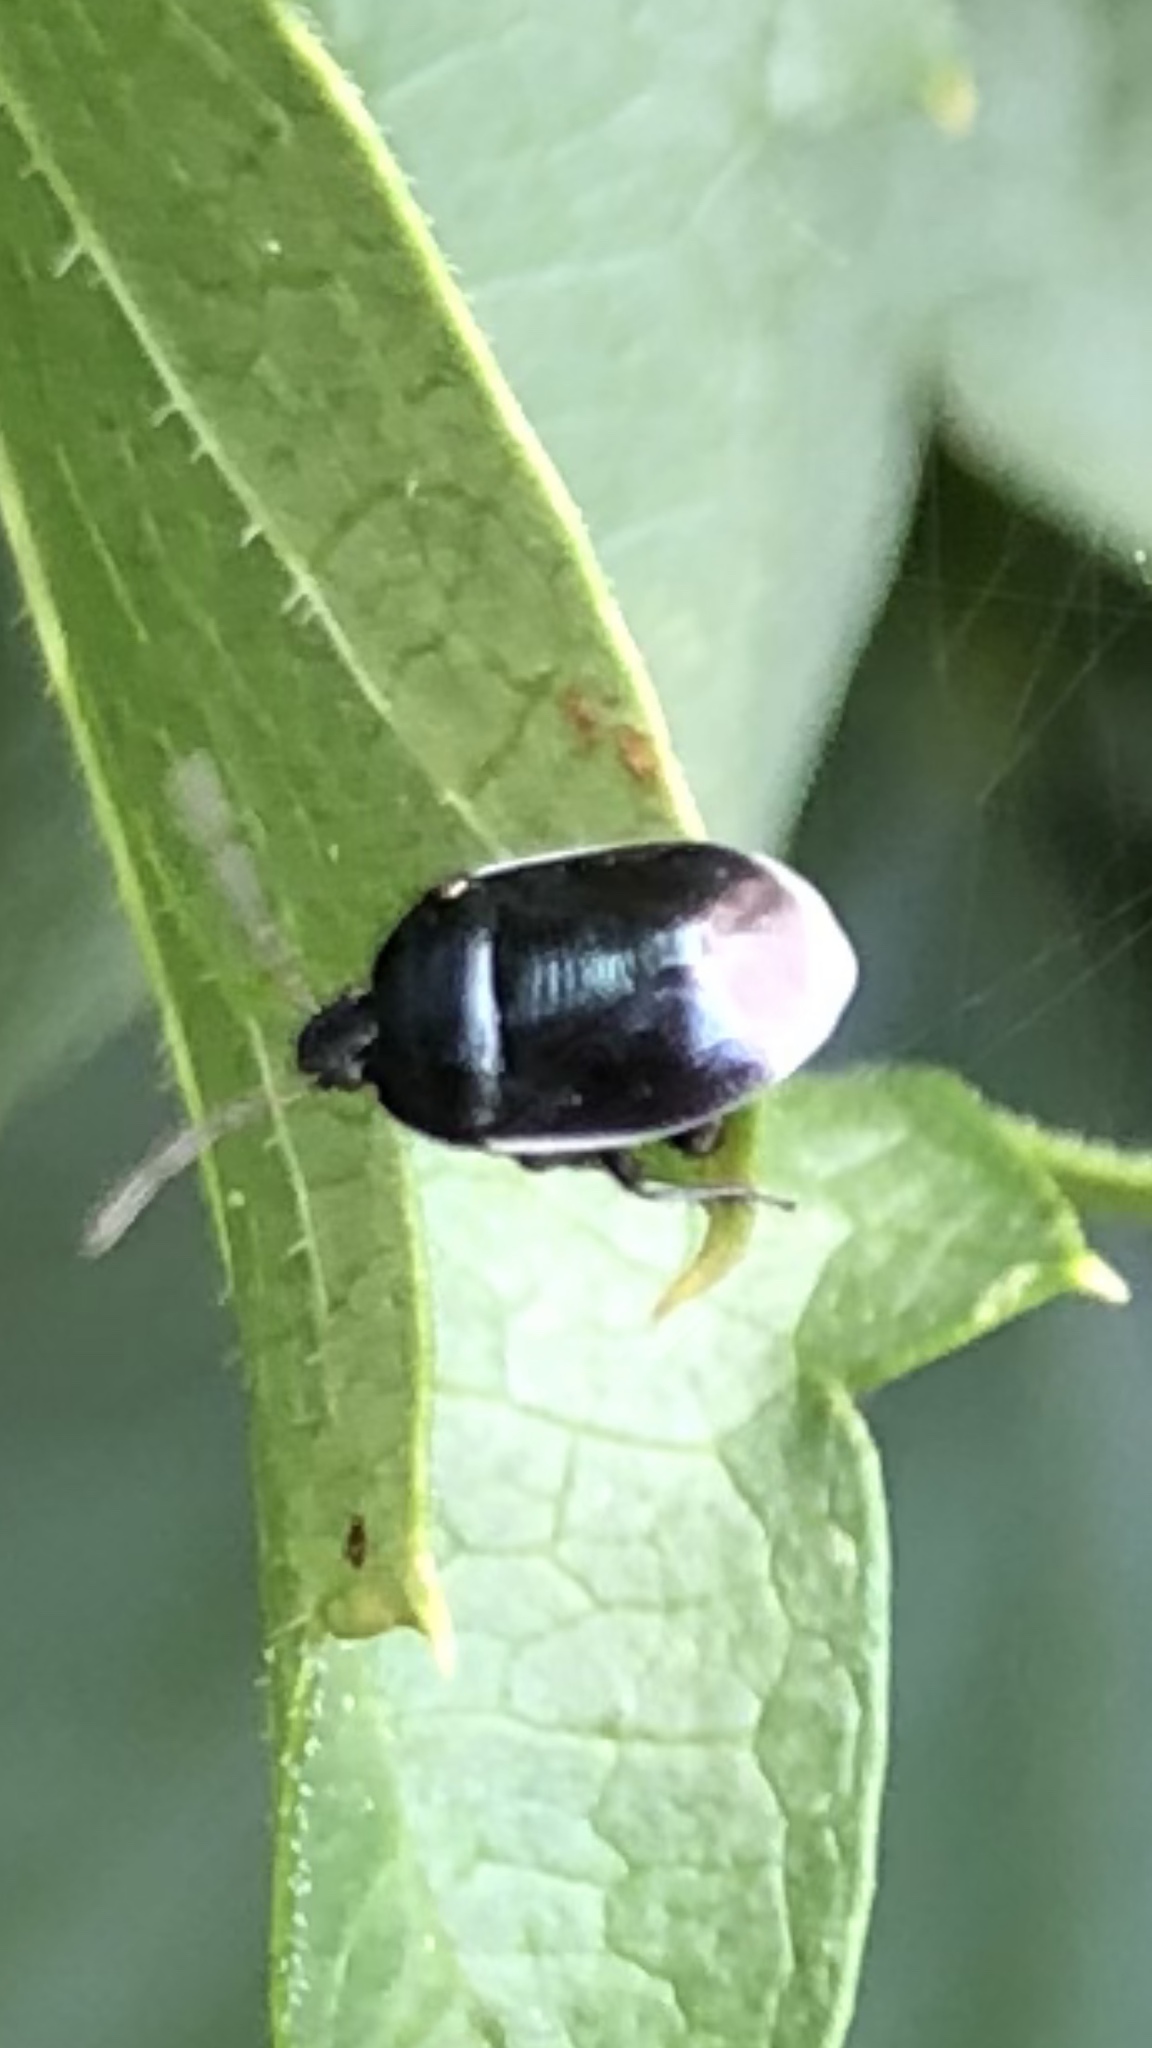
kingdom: Animalia
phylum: Arthropoda
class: Insecta
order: Hemiptera
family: Cydnidae
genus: Sehirus
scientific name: Sehirus cinctus
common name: White-margined burrower bug
